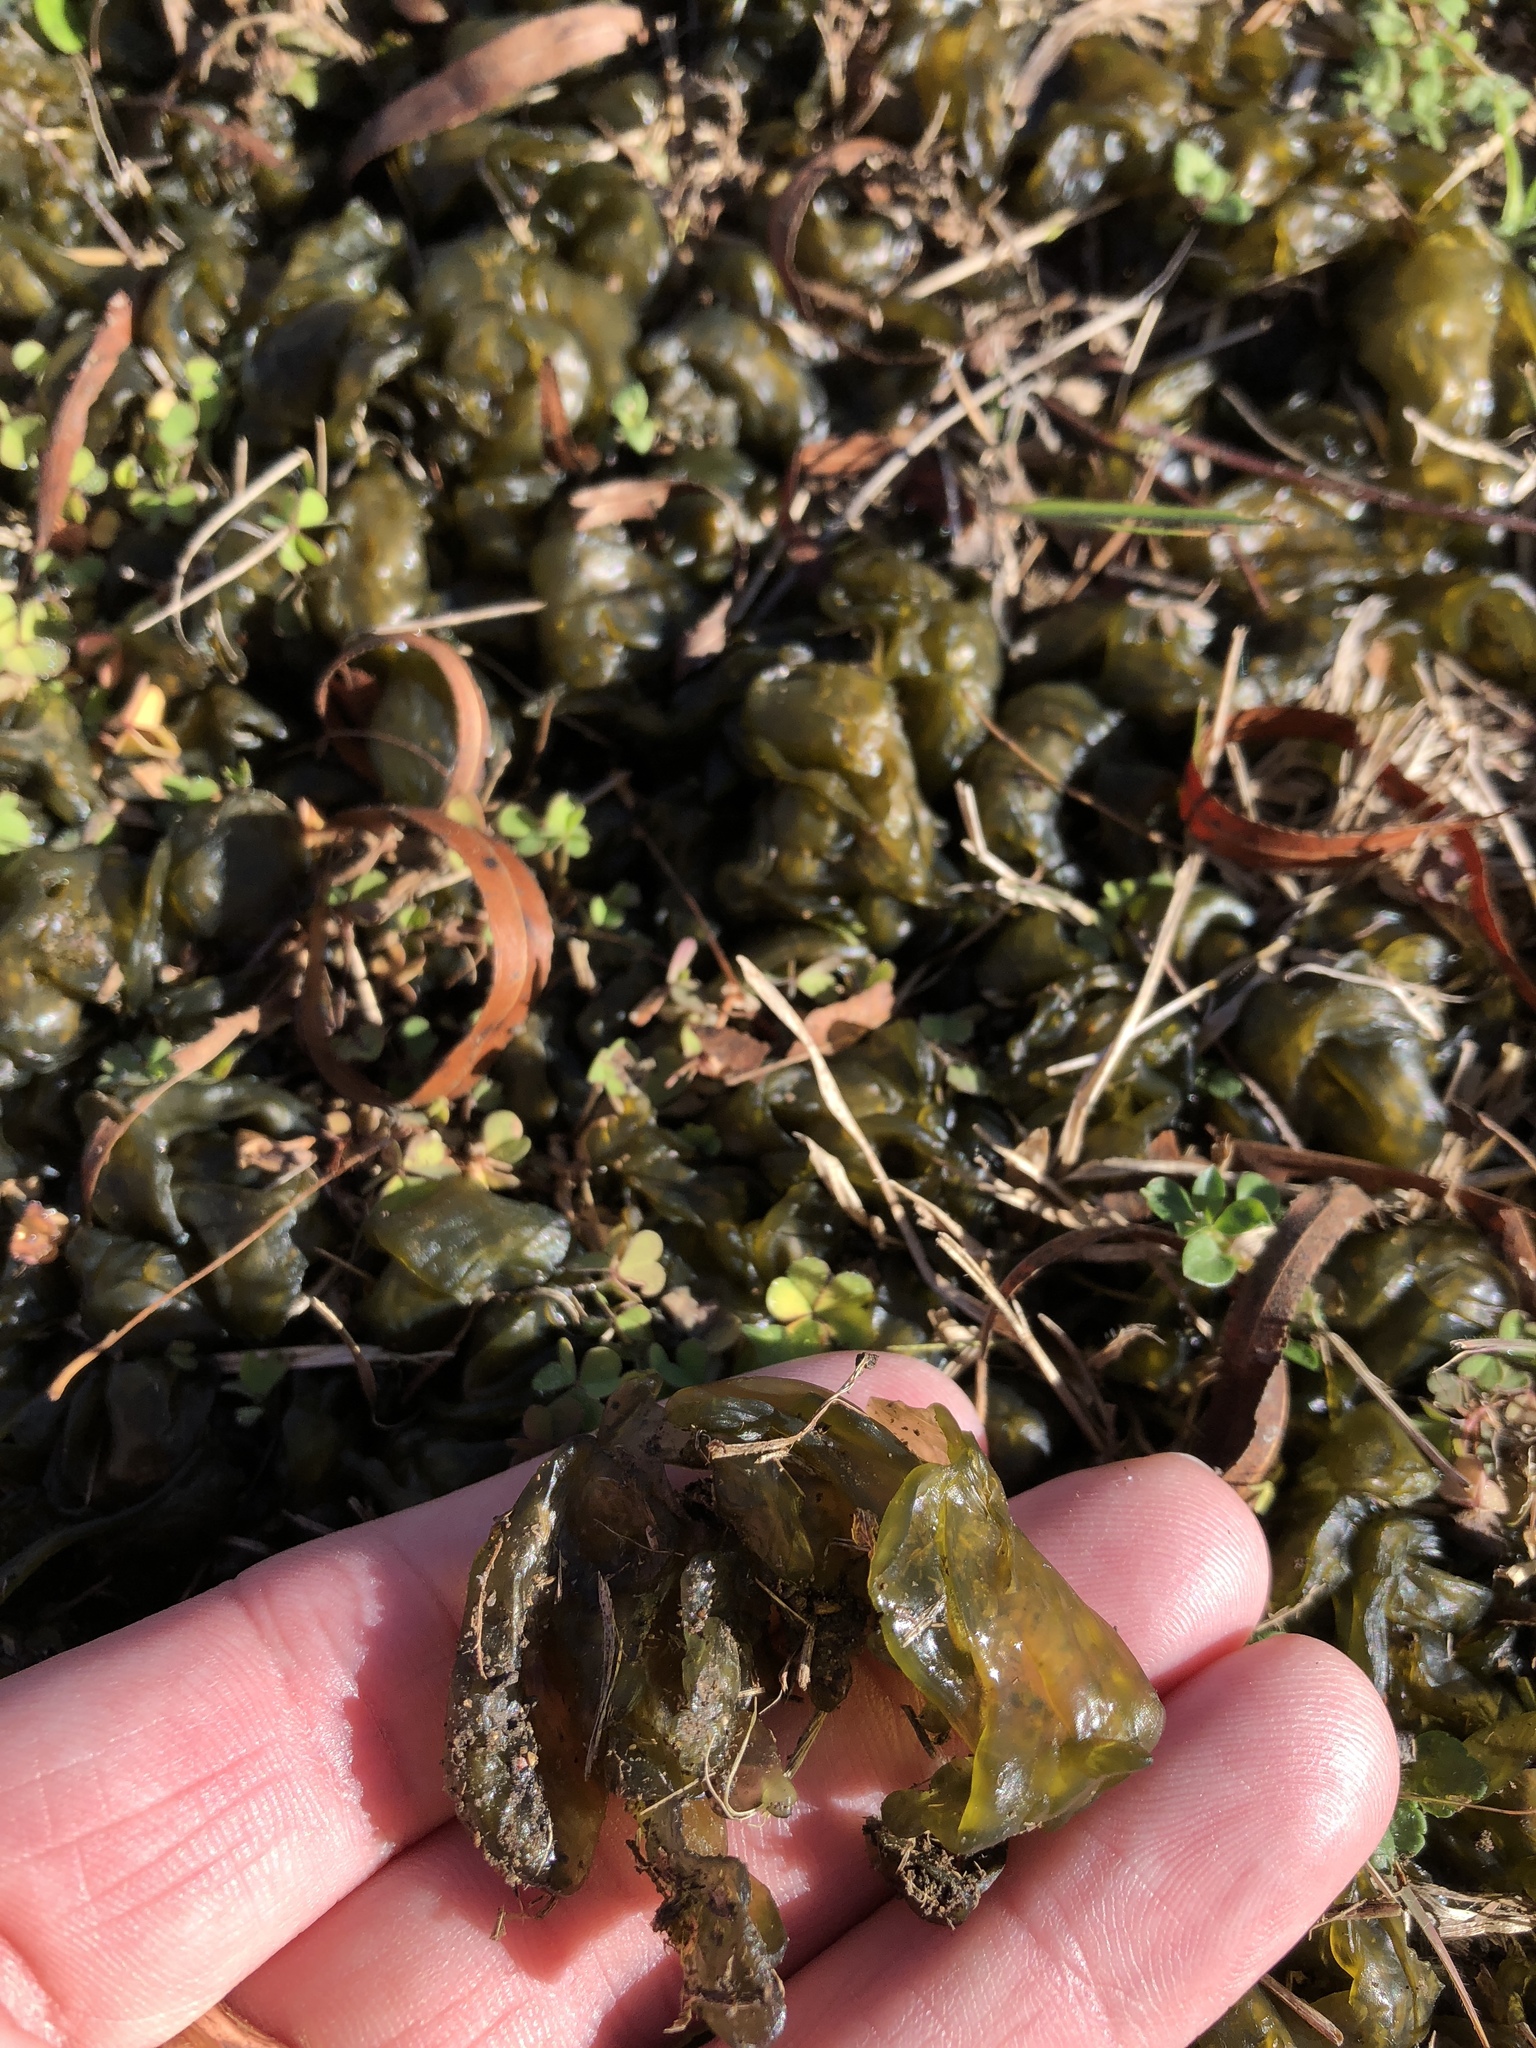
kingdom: Bacteria
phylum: Cyanobacteria
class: Cyanobacteriia
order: Cyanobacteriales
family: Nostocaceae
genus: Nostoc
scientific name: Nostoc commune
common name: Star jelly
